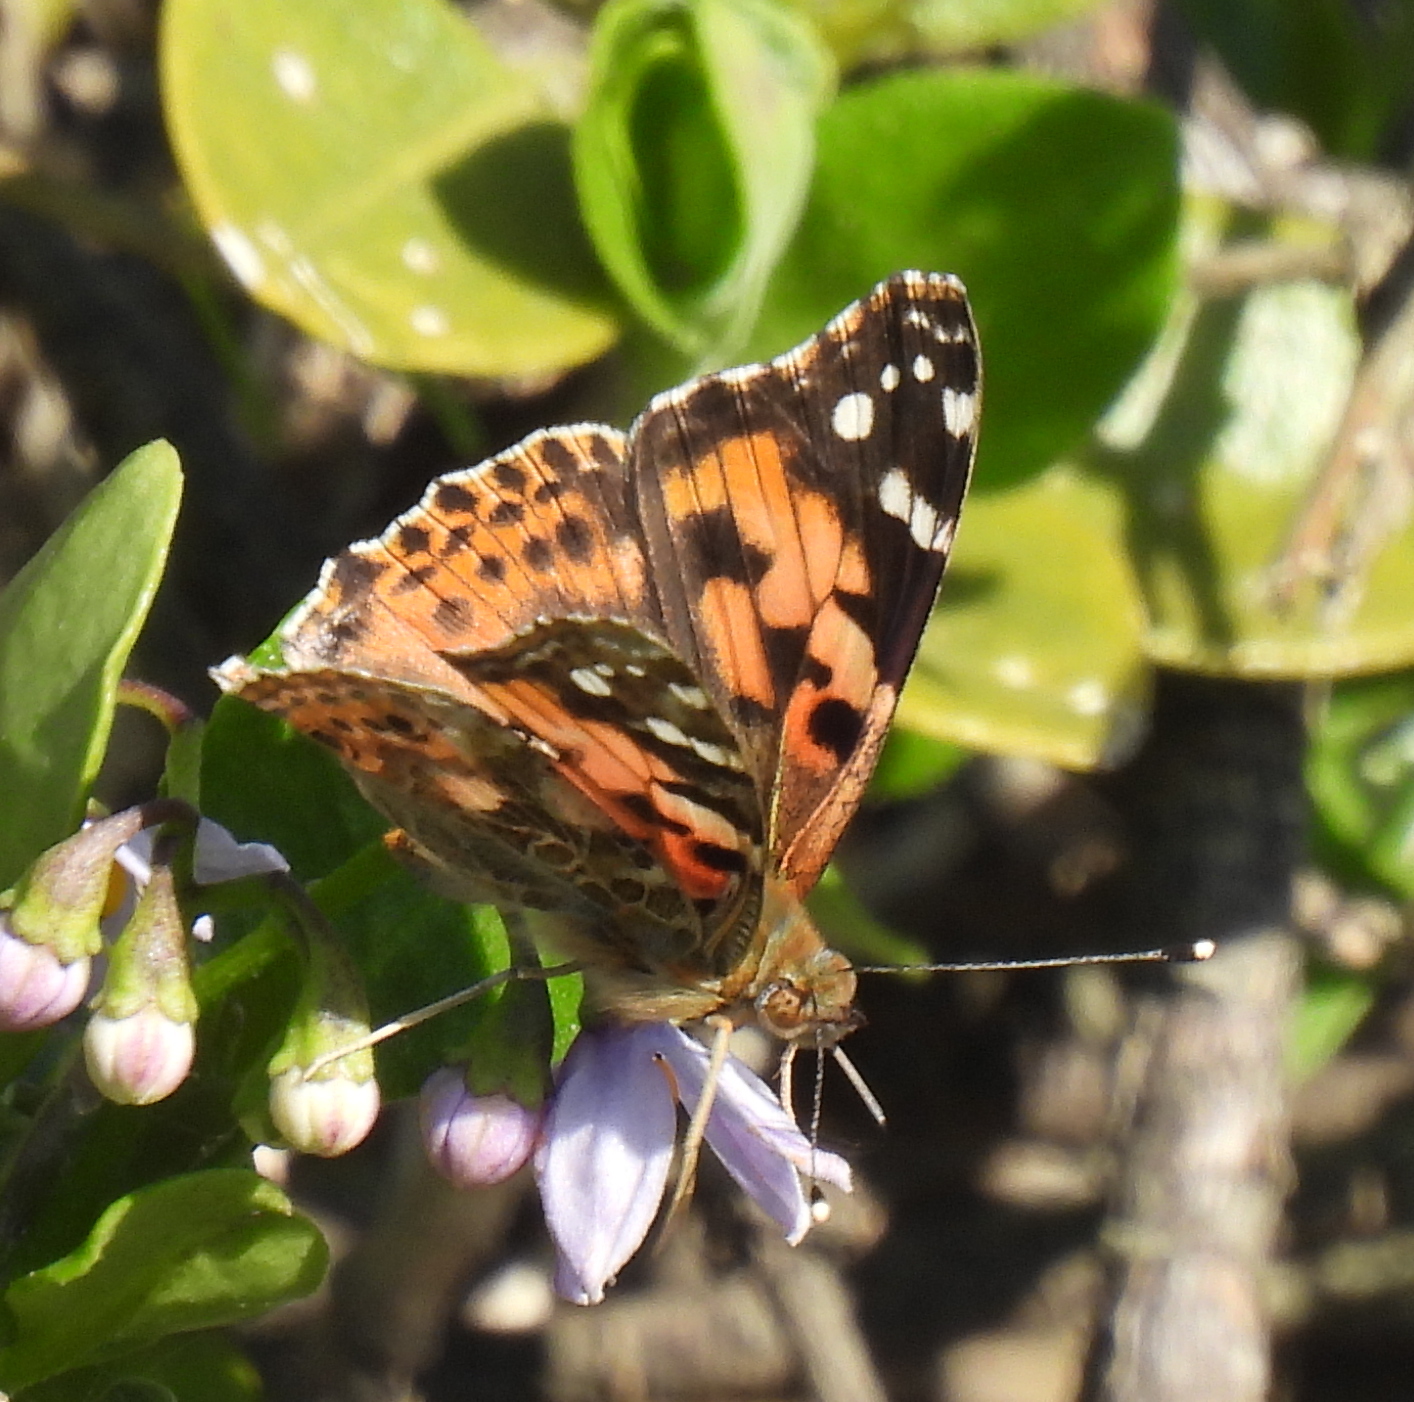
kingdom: Animalia
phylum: Arthropoda
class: Insecta
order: Lepidoptera
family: Nymphalidae
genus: Vanessa
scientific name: Vanessa cardui
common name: Painted lady
